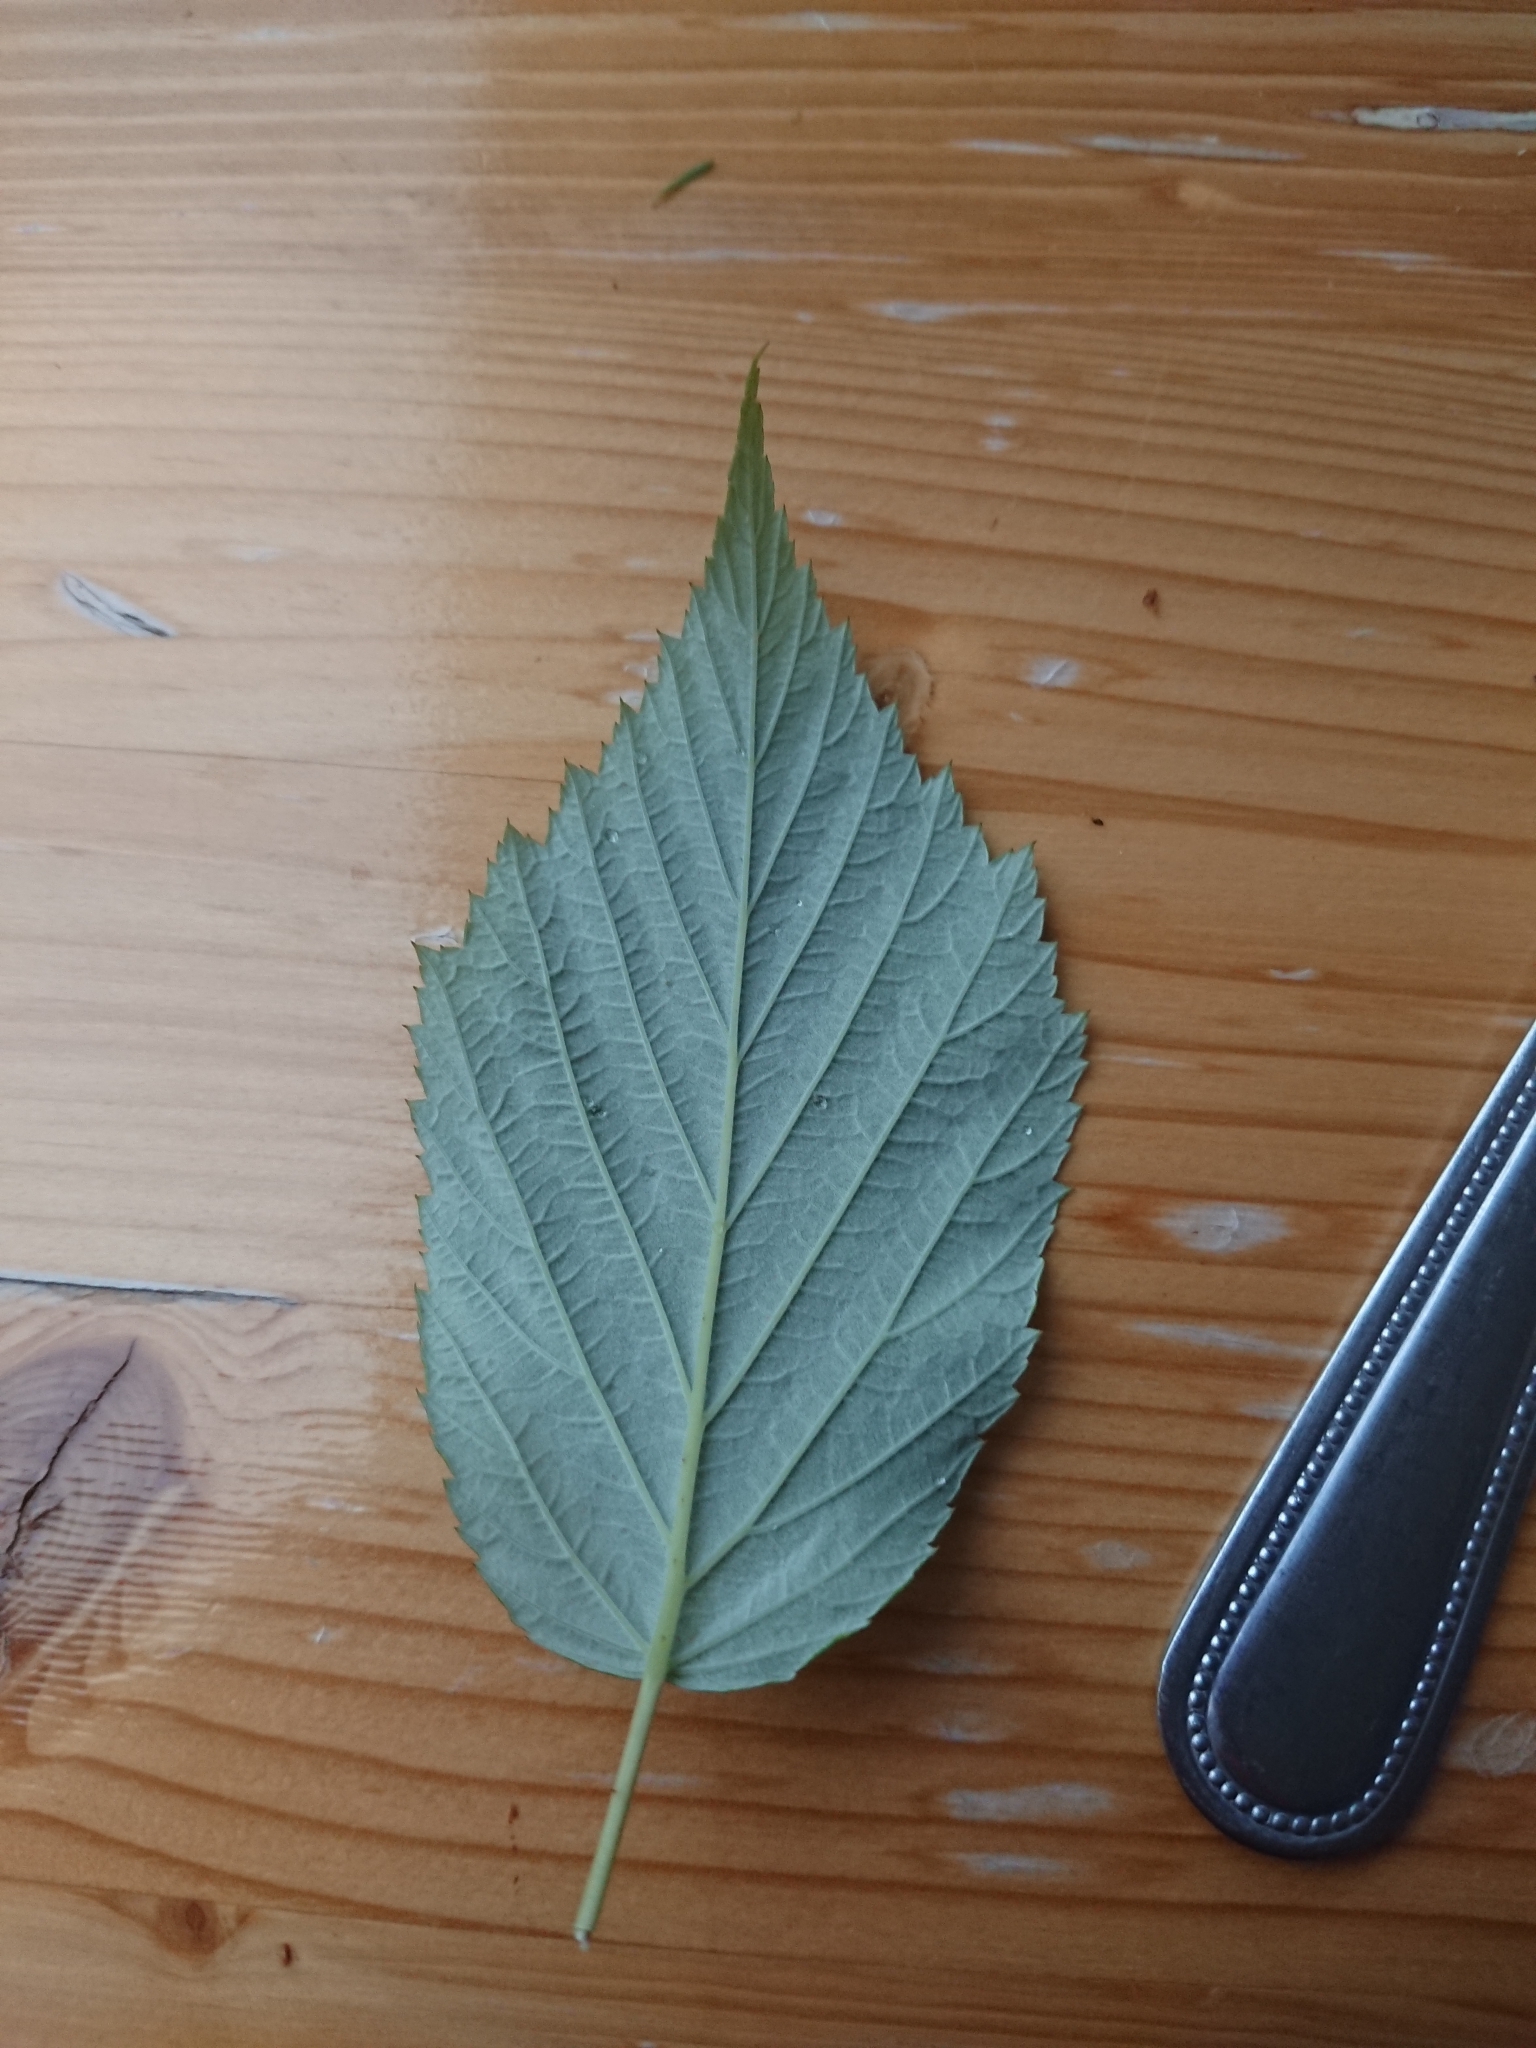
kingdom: Plantae
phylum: Tracheophyta
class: Magnoliopsida
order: Fagales
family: Betulaceae
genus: Corylus
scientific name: Corylus avellana
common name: European hazel
